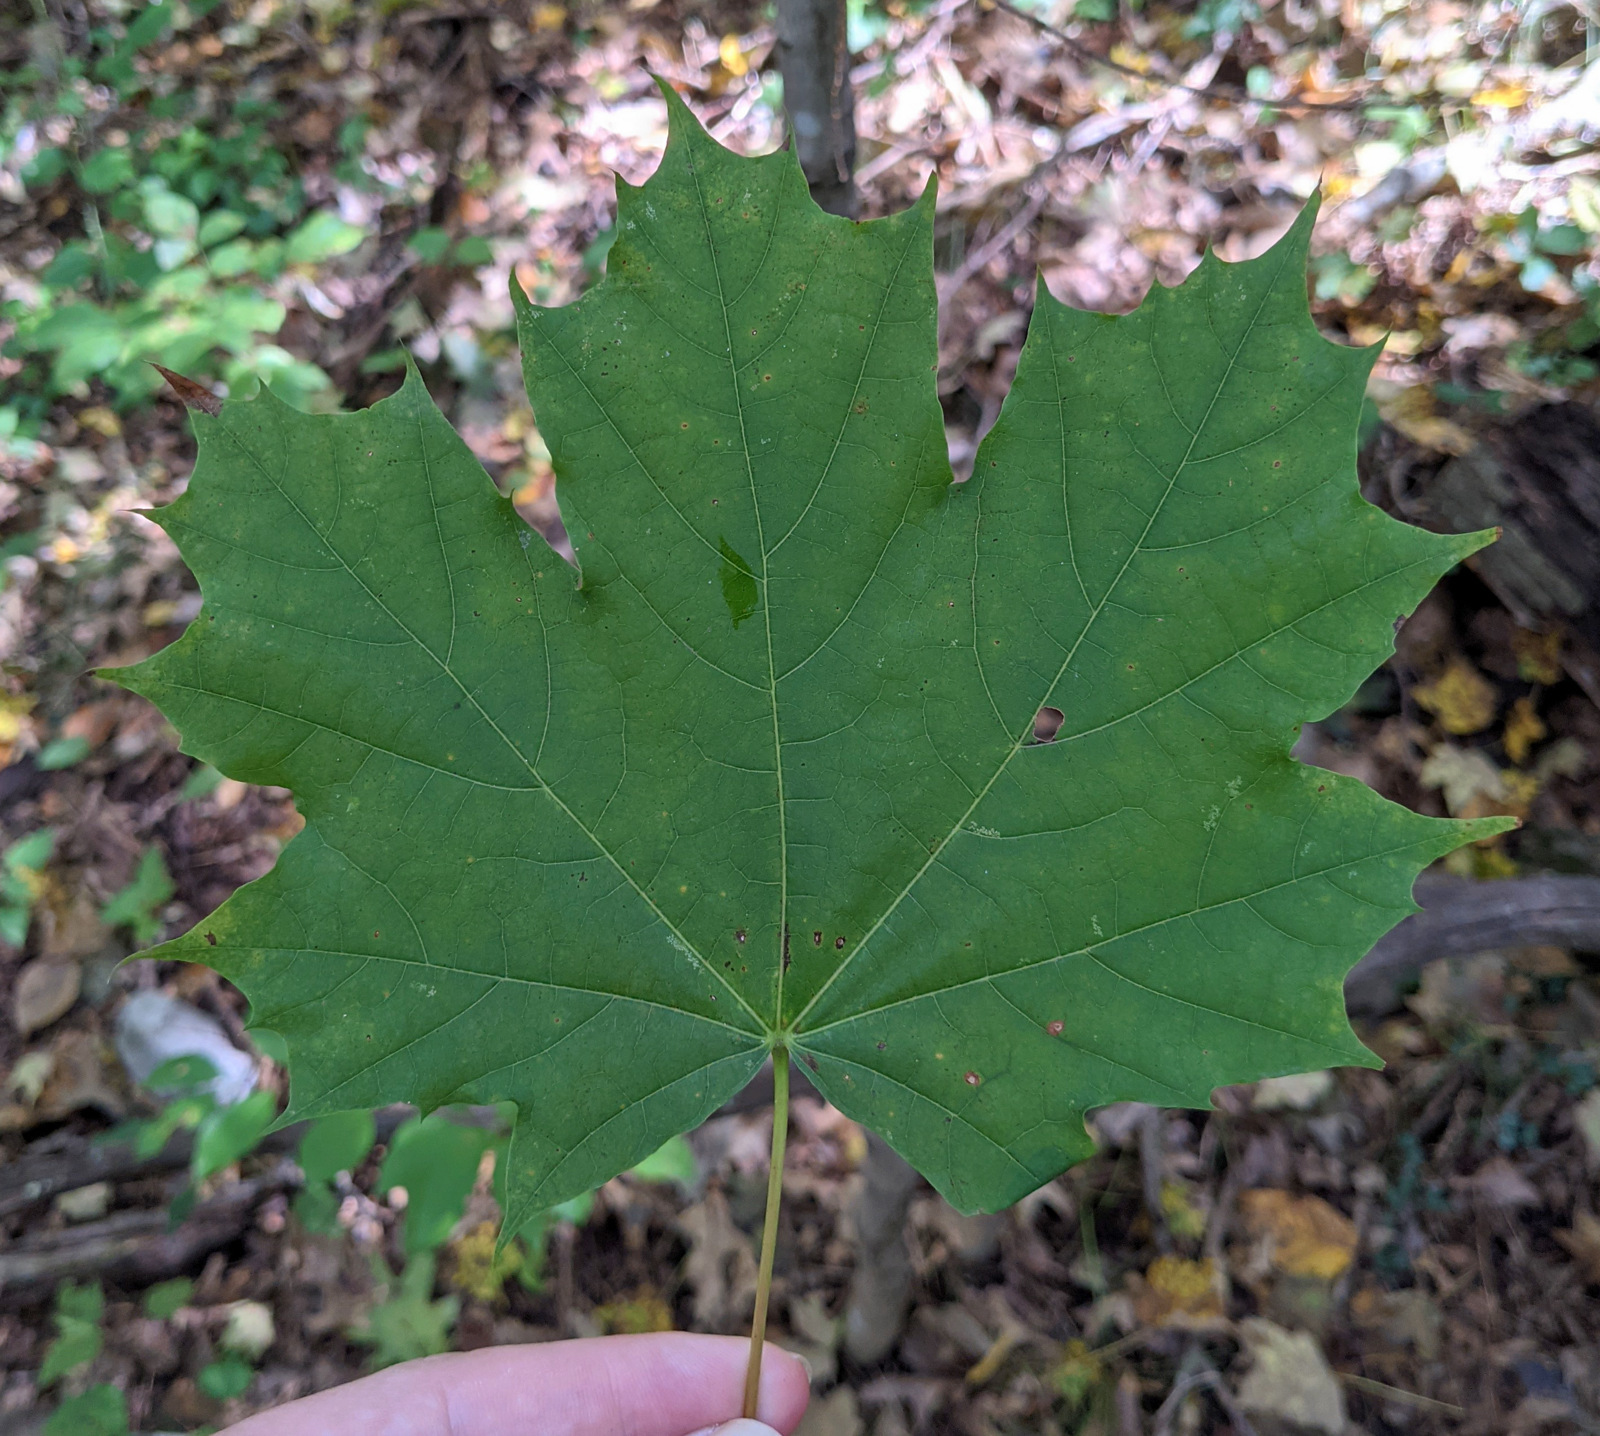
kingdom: Plantae
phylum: Tracheophyta
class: Magnoliopsida
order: Sapindales
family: Sapindaceae
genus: Acer
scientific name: Acer platanoides
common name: Norway maple
